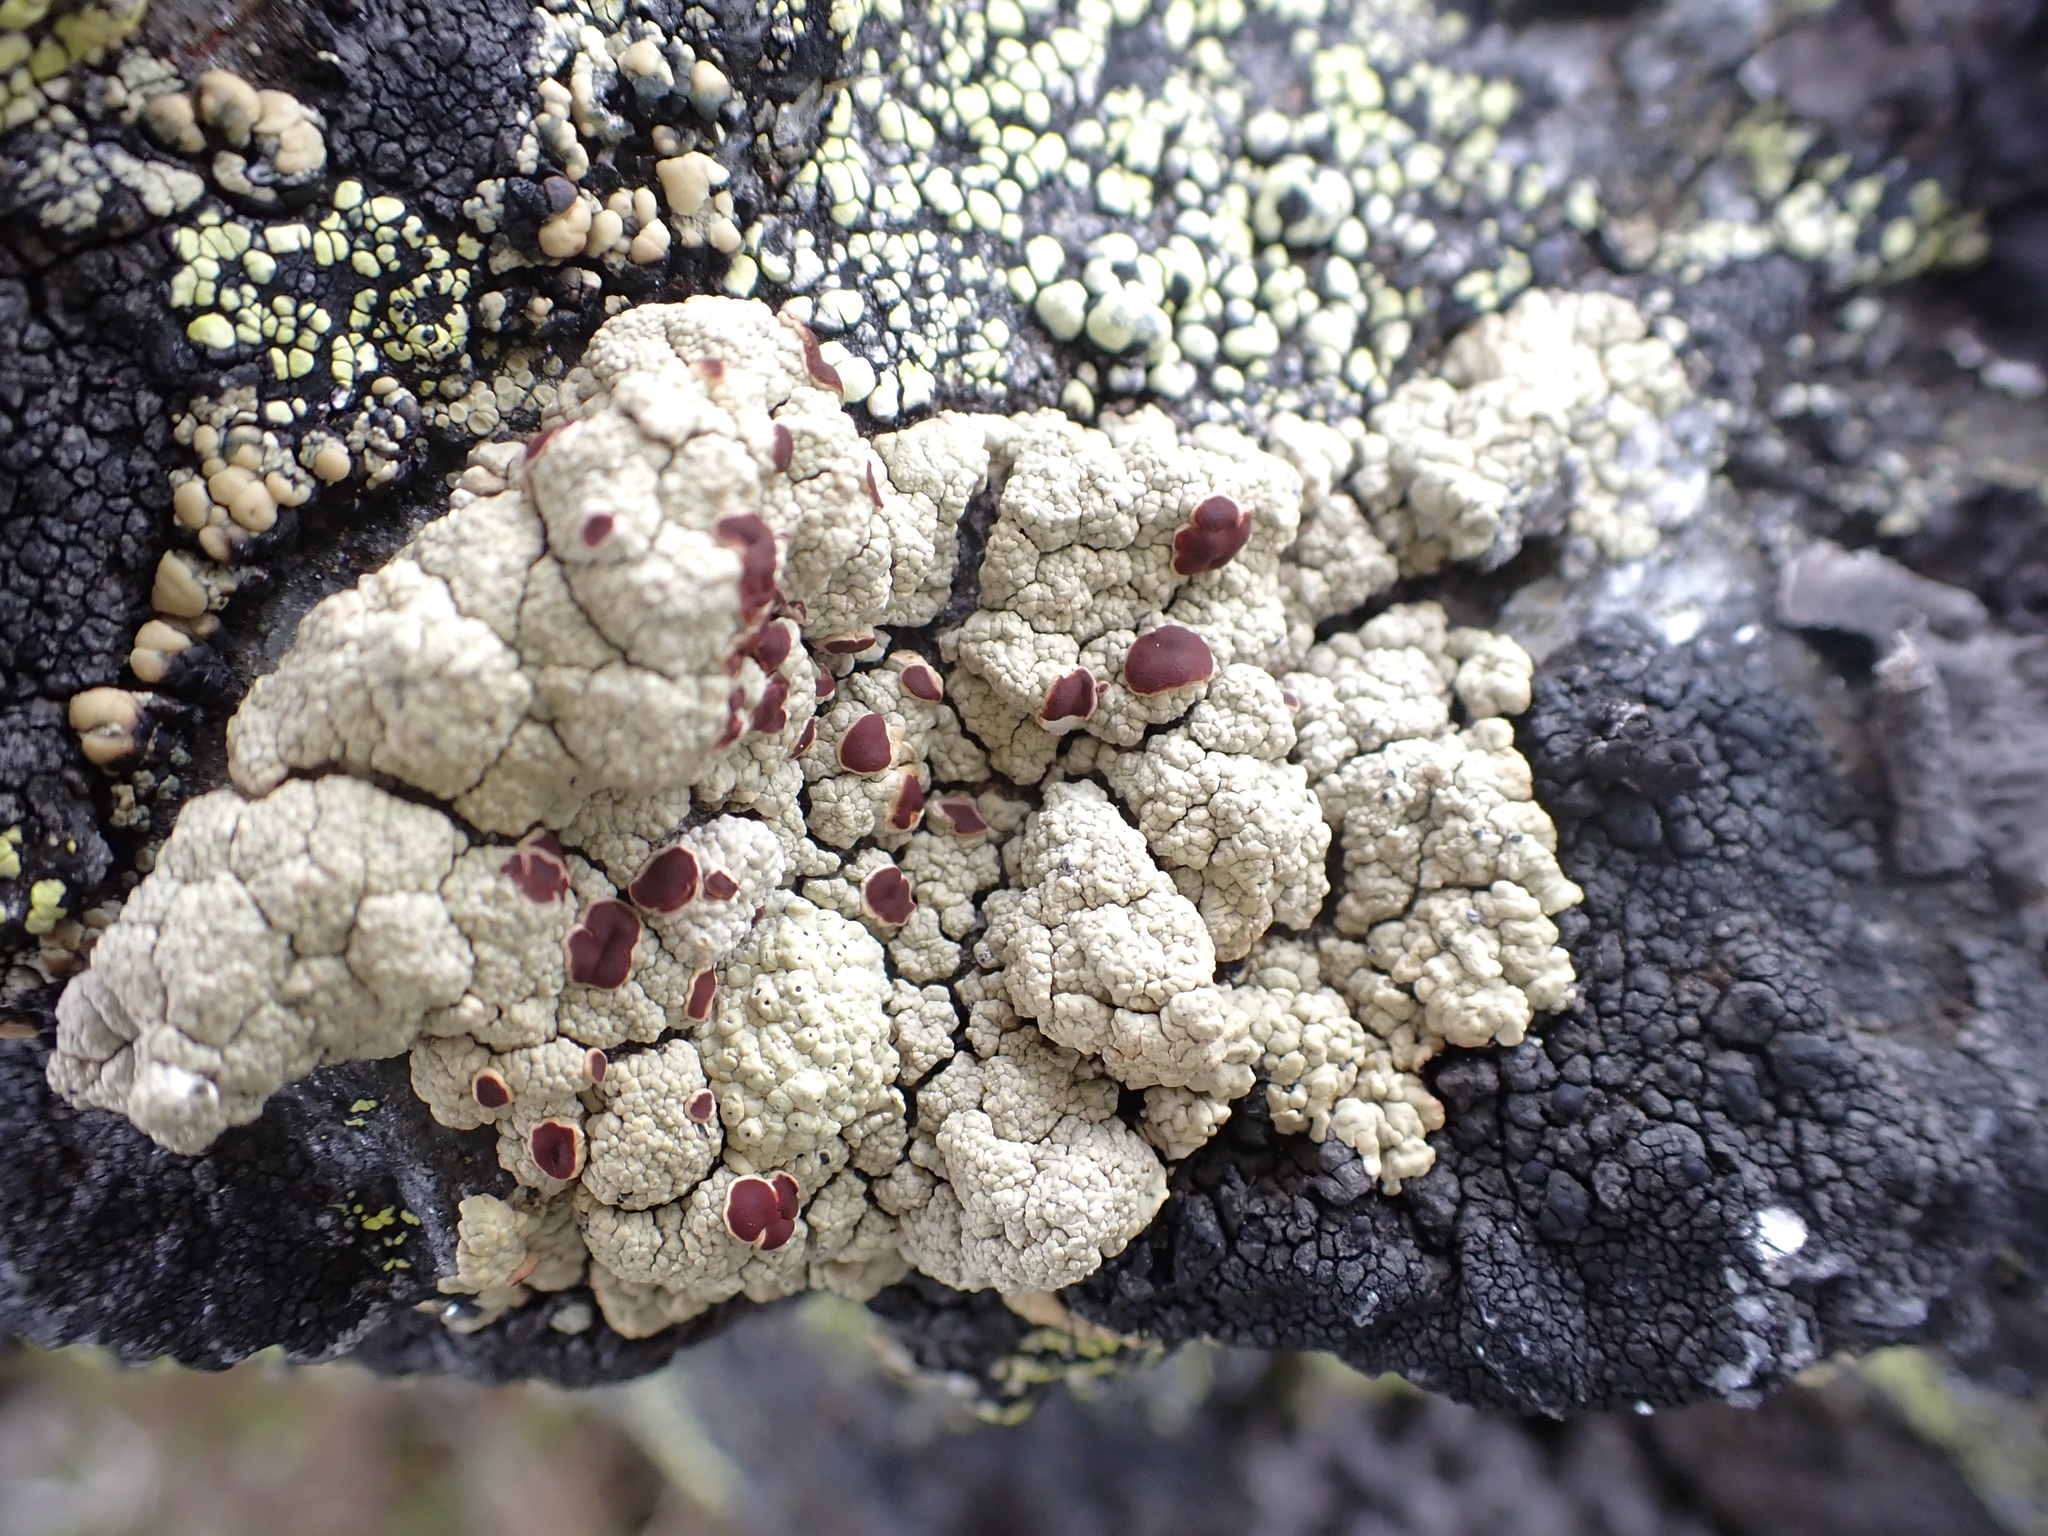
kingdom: Fungi
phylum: Ascomycota
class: Lecanoromycetes
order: Umbilicariales
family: Ophioparmaceae
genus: Ophioparma
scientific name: Ophioparma ventosa
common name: Blood-spot
